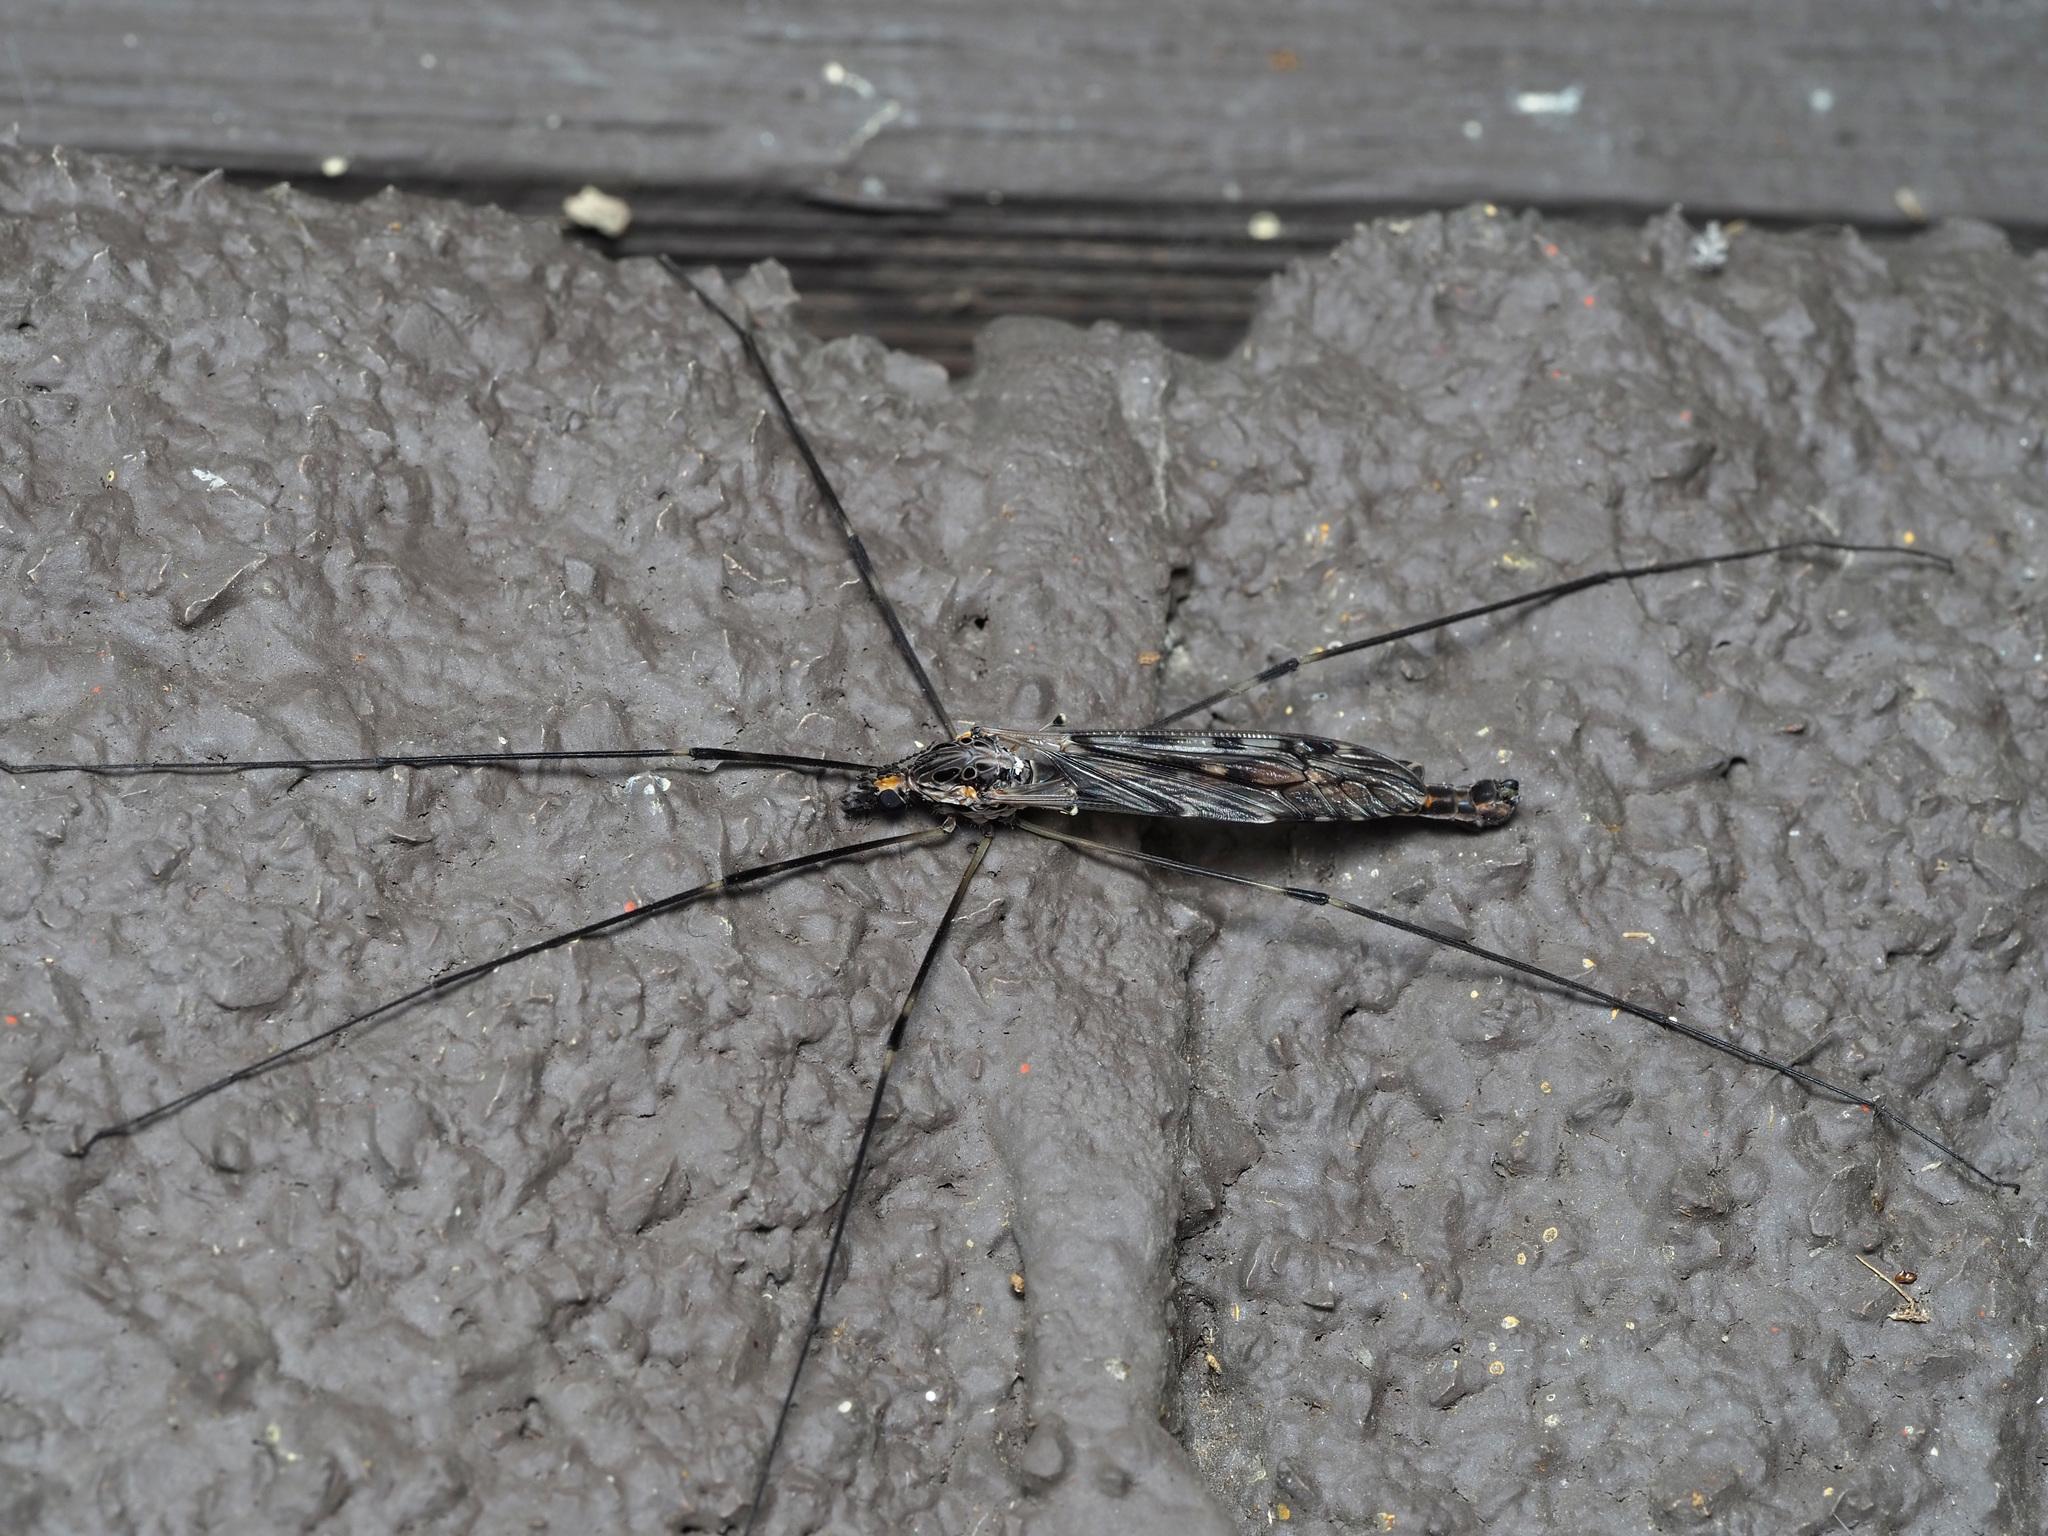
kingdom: Animalia
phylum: Arthropoda
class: Insecta
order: Diptera
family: Tipulidae
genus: Tipula
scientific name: Tipula abdominalis
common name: Giant crane fly
